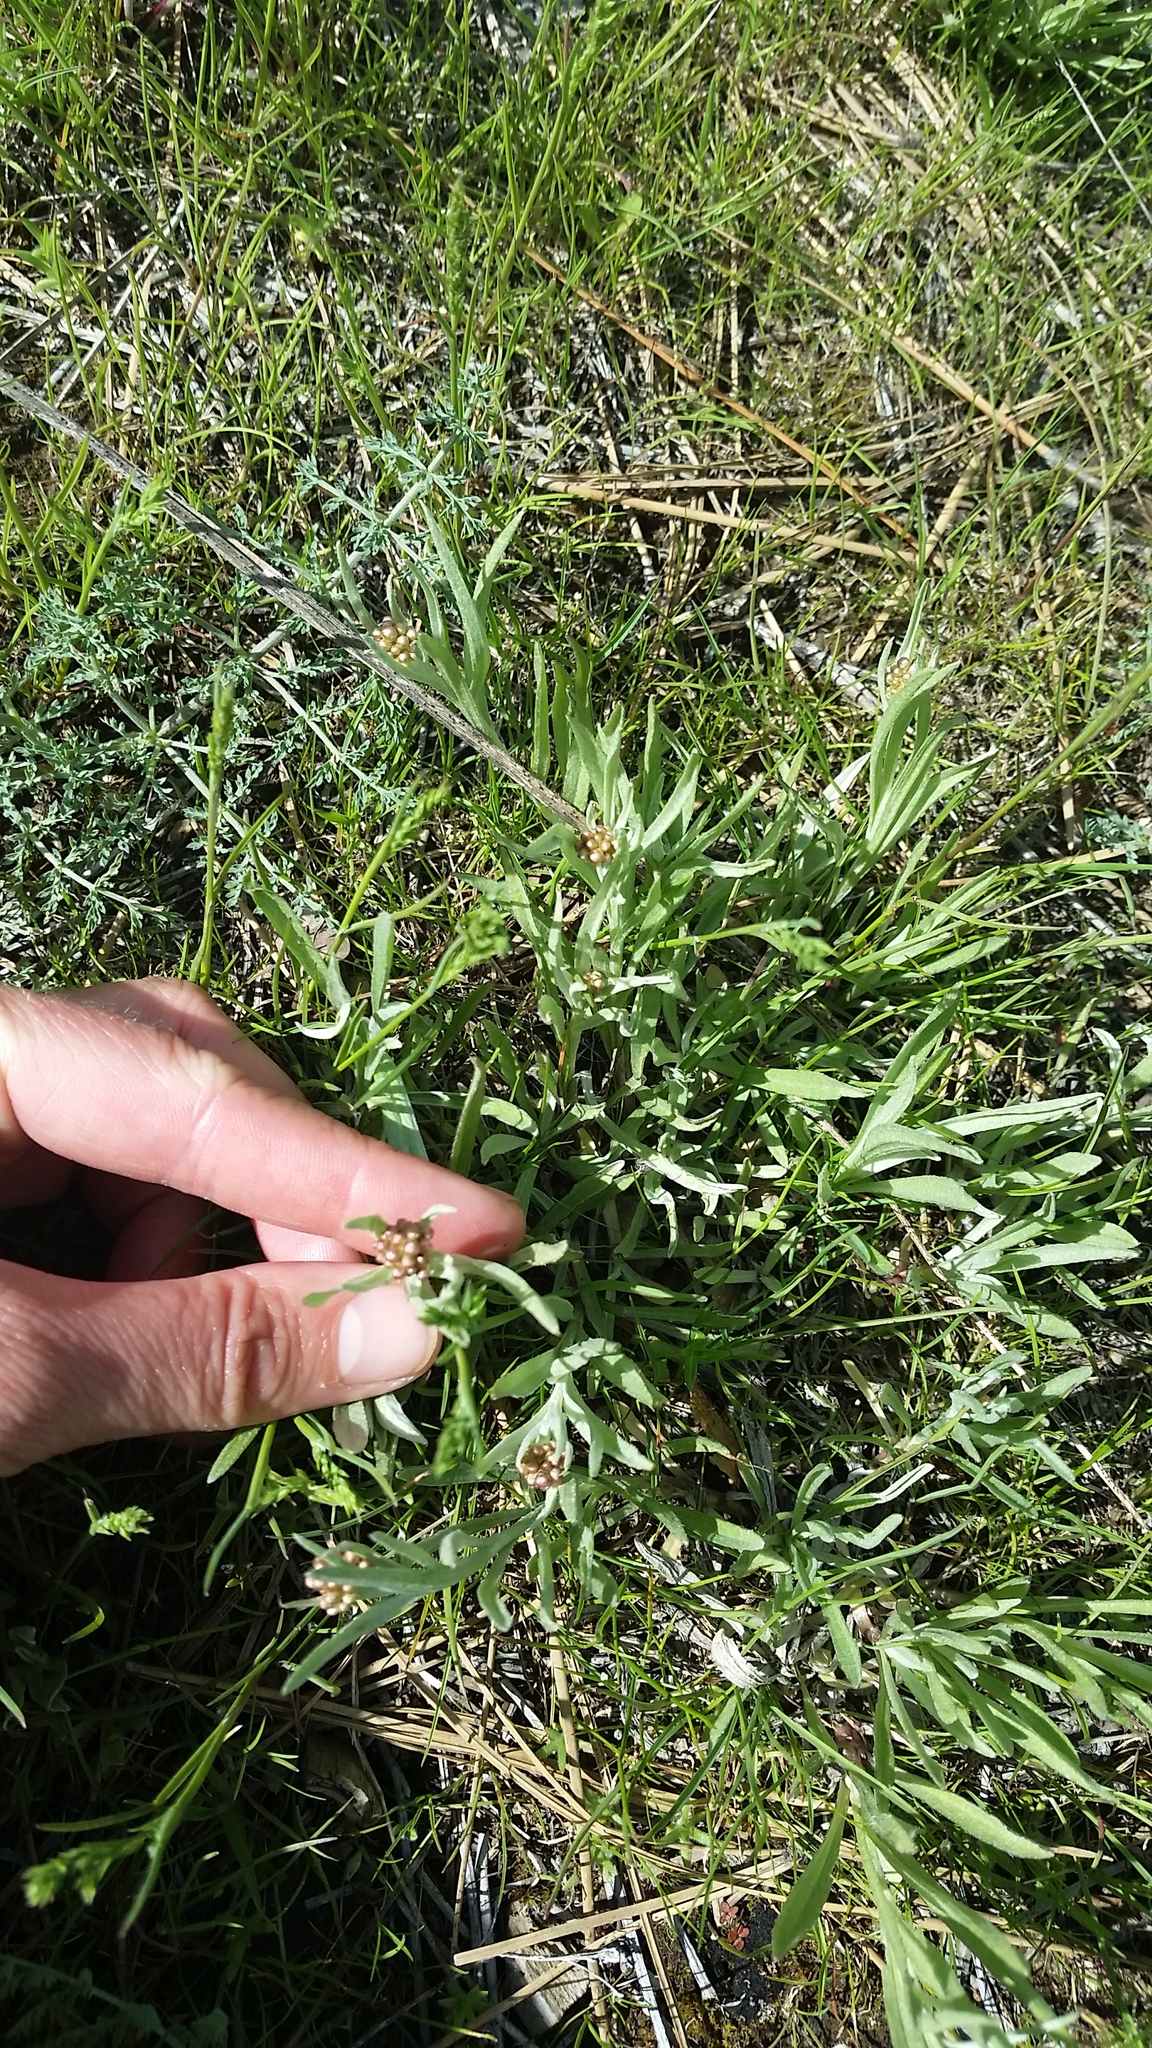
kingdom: Plantae
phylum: Tracheophyta
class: Magnoliopsida
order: Asterales
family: Asteraceae
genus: Antennaria
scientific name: Antennaria luzuloides
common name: Rush pussytoes
